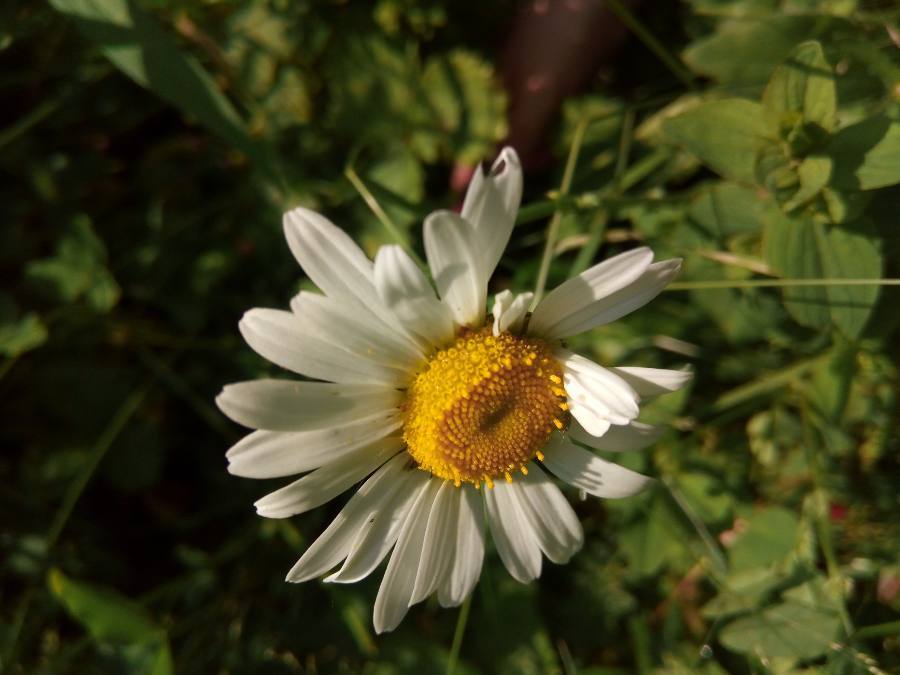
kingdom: Plantae
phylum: Tracheophyta
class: Magnoliopsida
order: Asterales
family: Asteraceae
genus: Leucanthemum
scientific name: Leucanthemum vulgare
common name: Oxeye daisy
